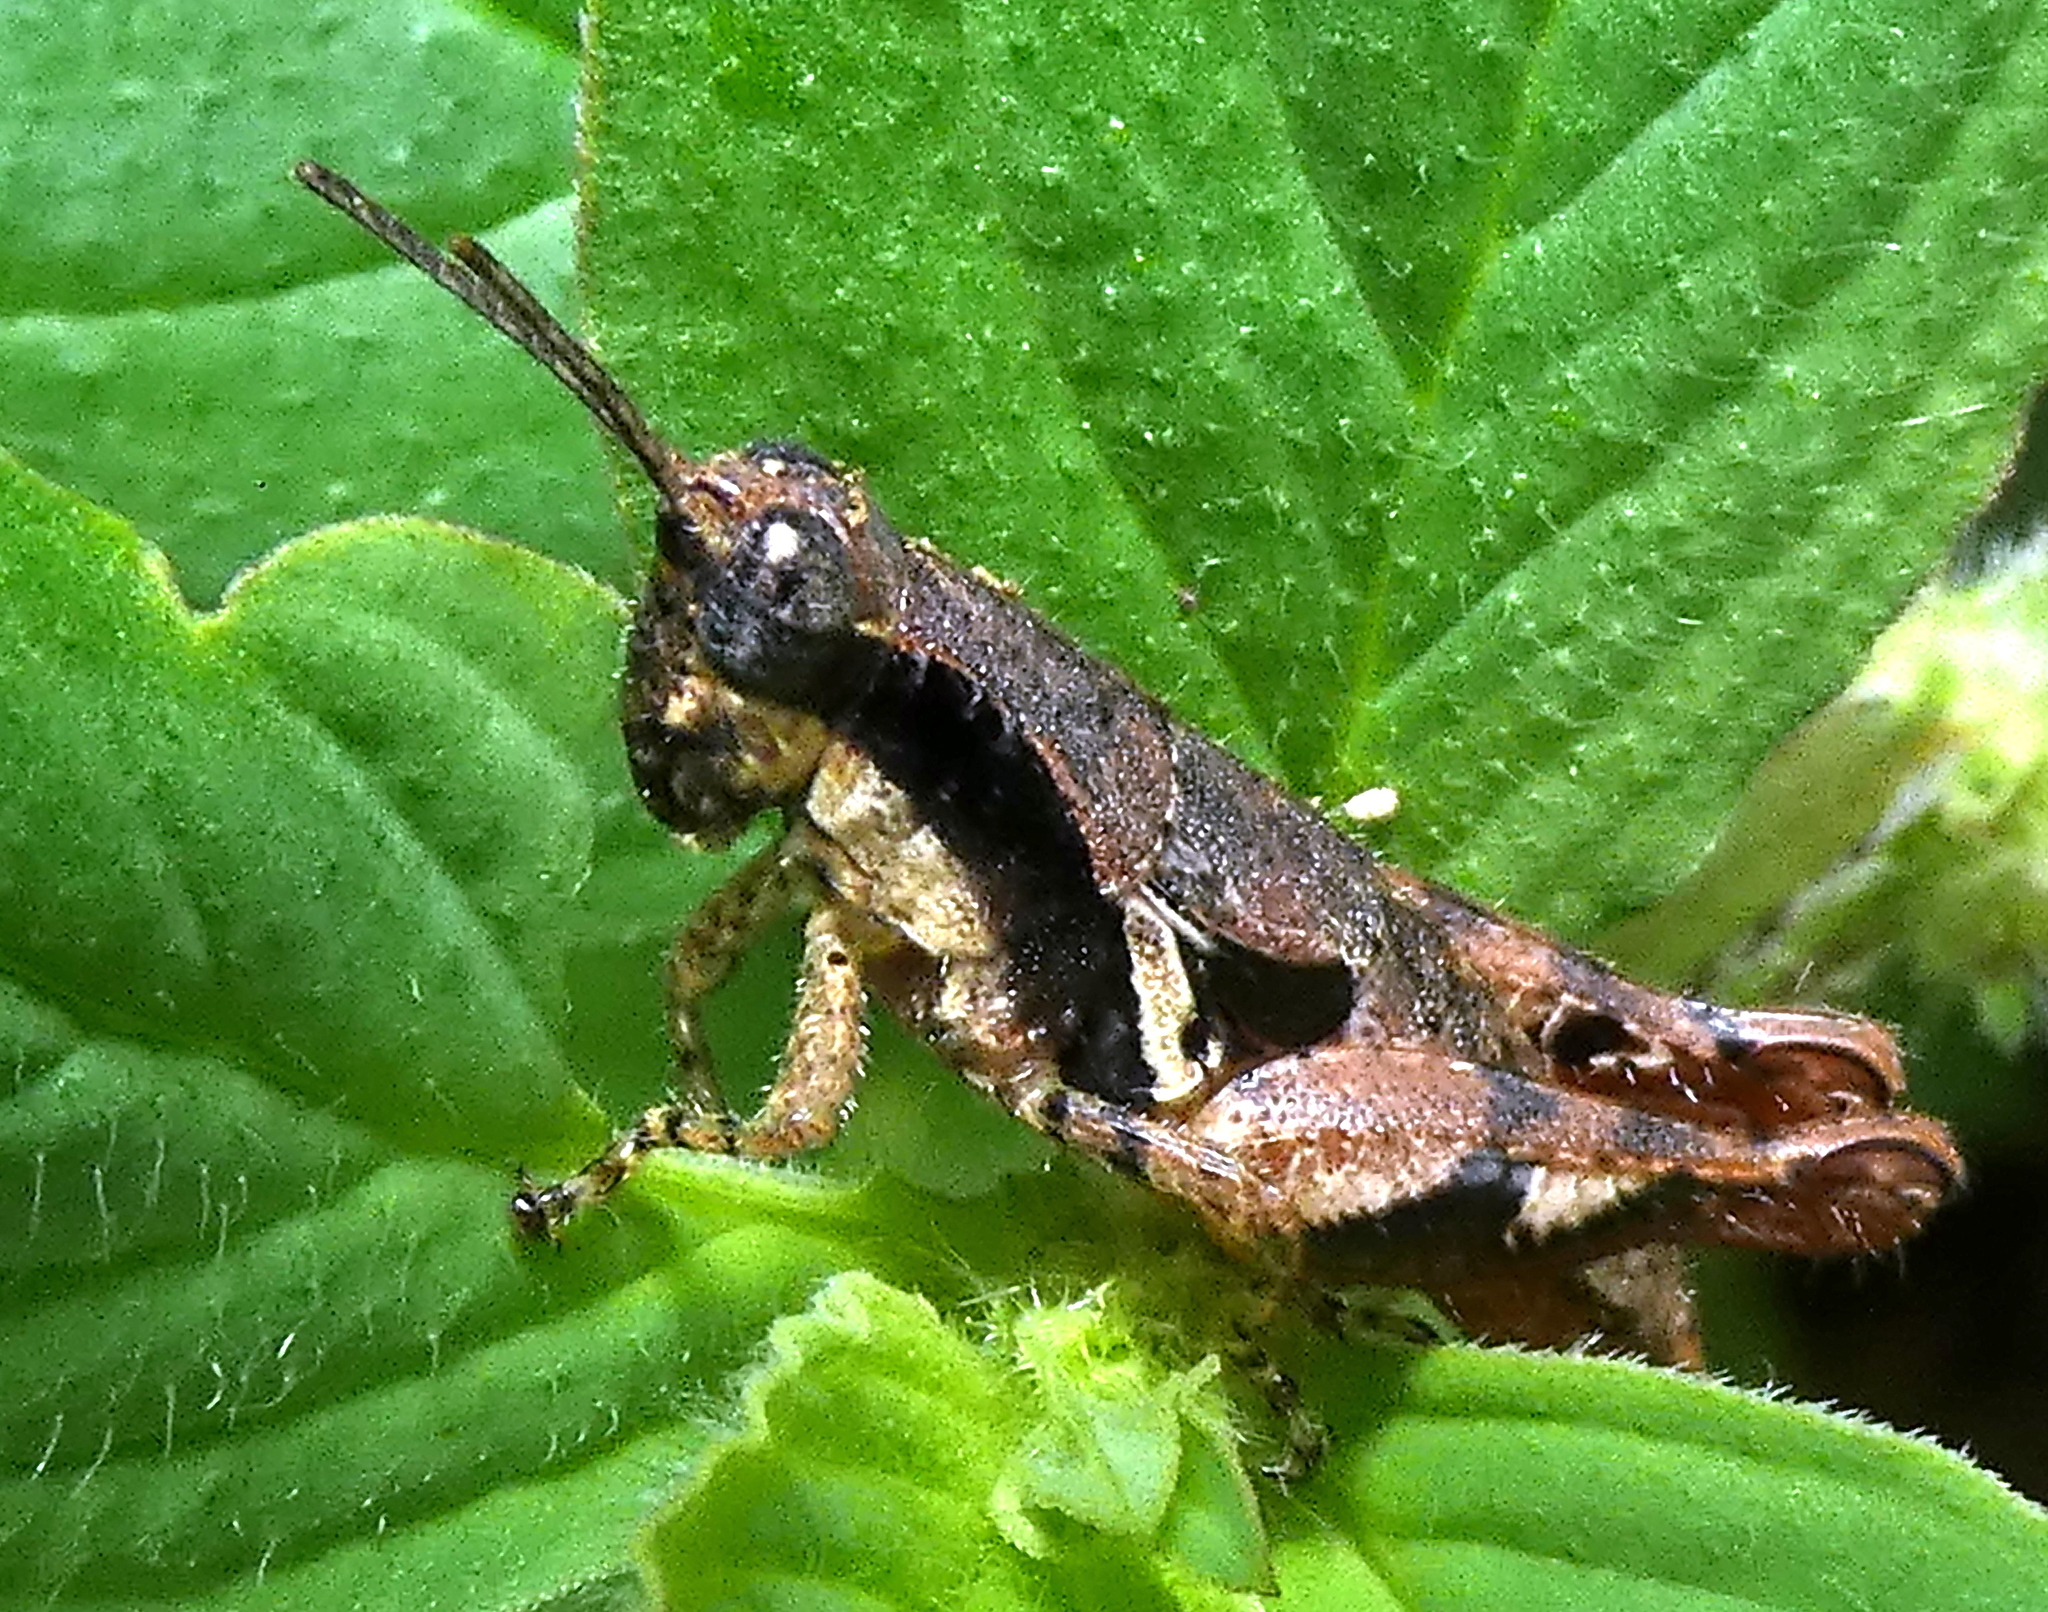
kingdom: Animalia
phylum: Arthropoda
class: Insecta
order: Orthoptera
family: Acrididae
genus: Eujivarus
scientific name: Eujivarus meridionalis
